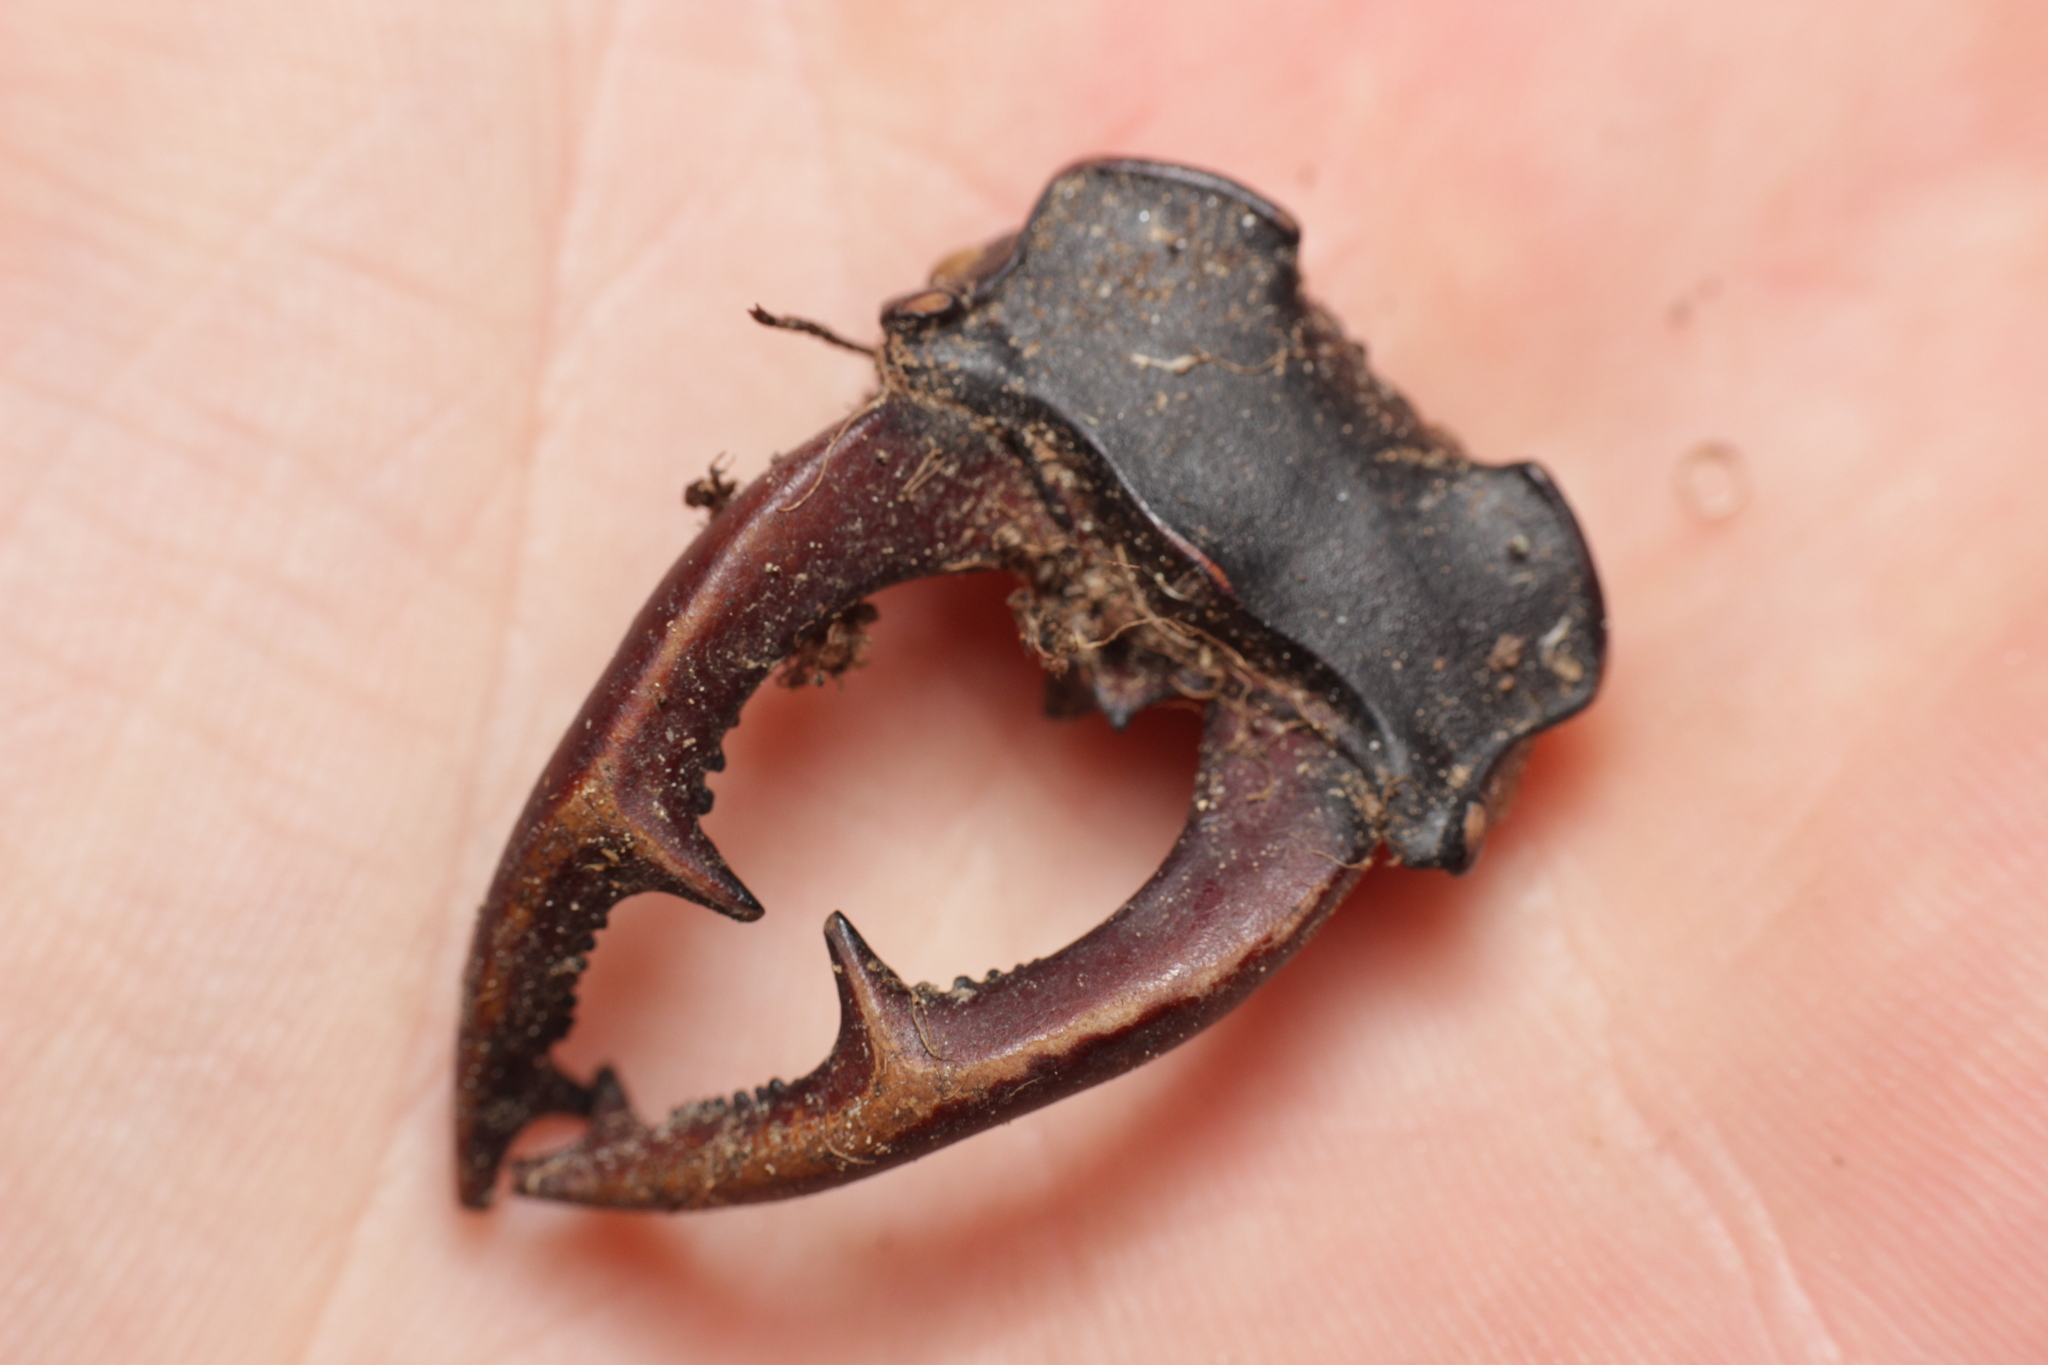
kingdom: Animalia
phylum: Arthropoda
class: Insecta
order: Coleoptera
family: Lucanidae
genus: Lucanus
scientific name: Lucanus cervus
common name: Stag beetle
